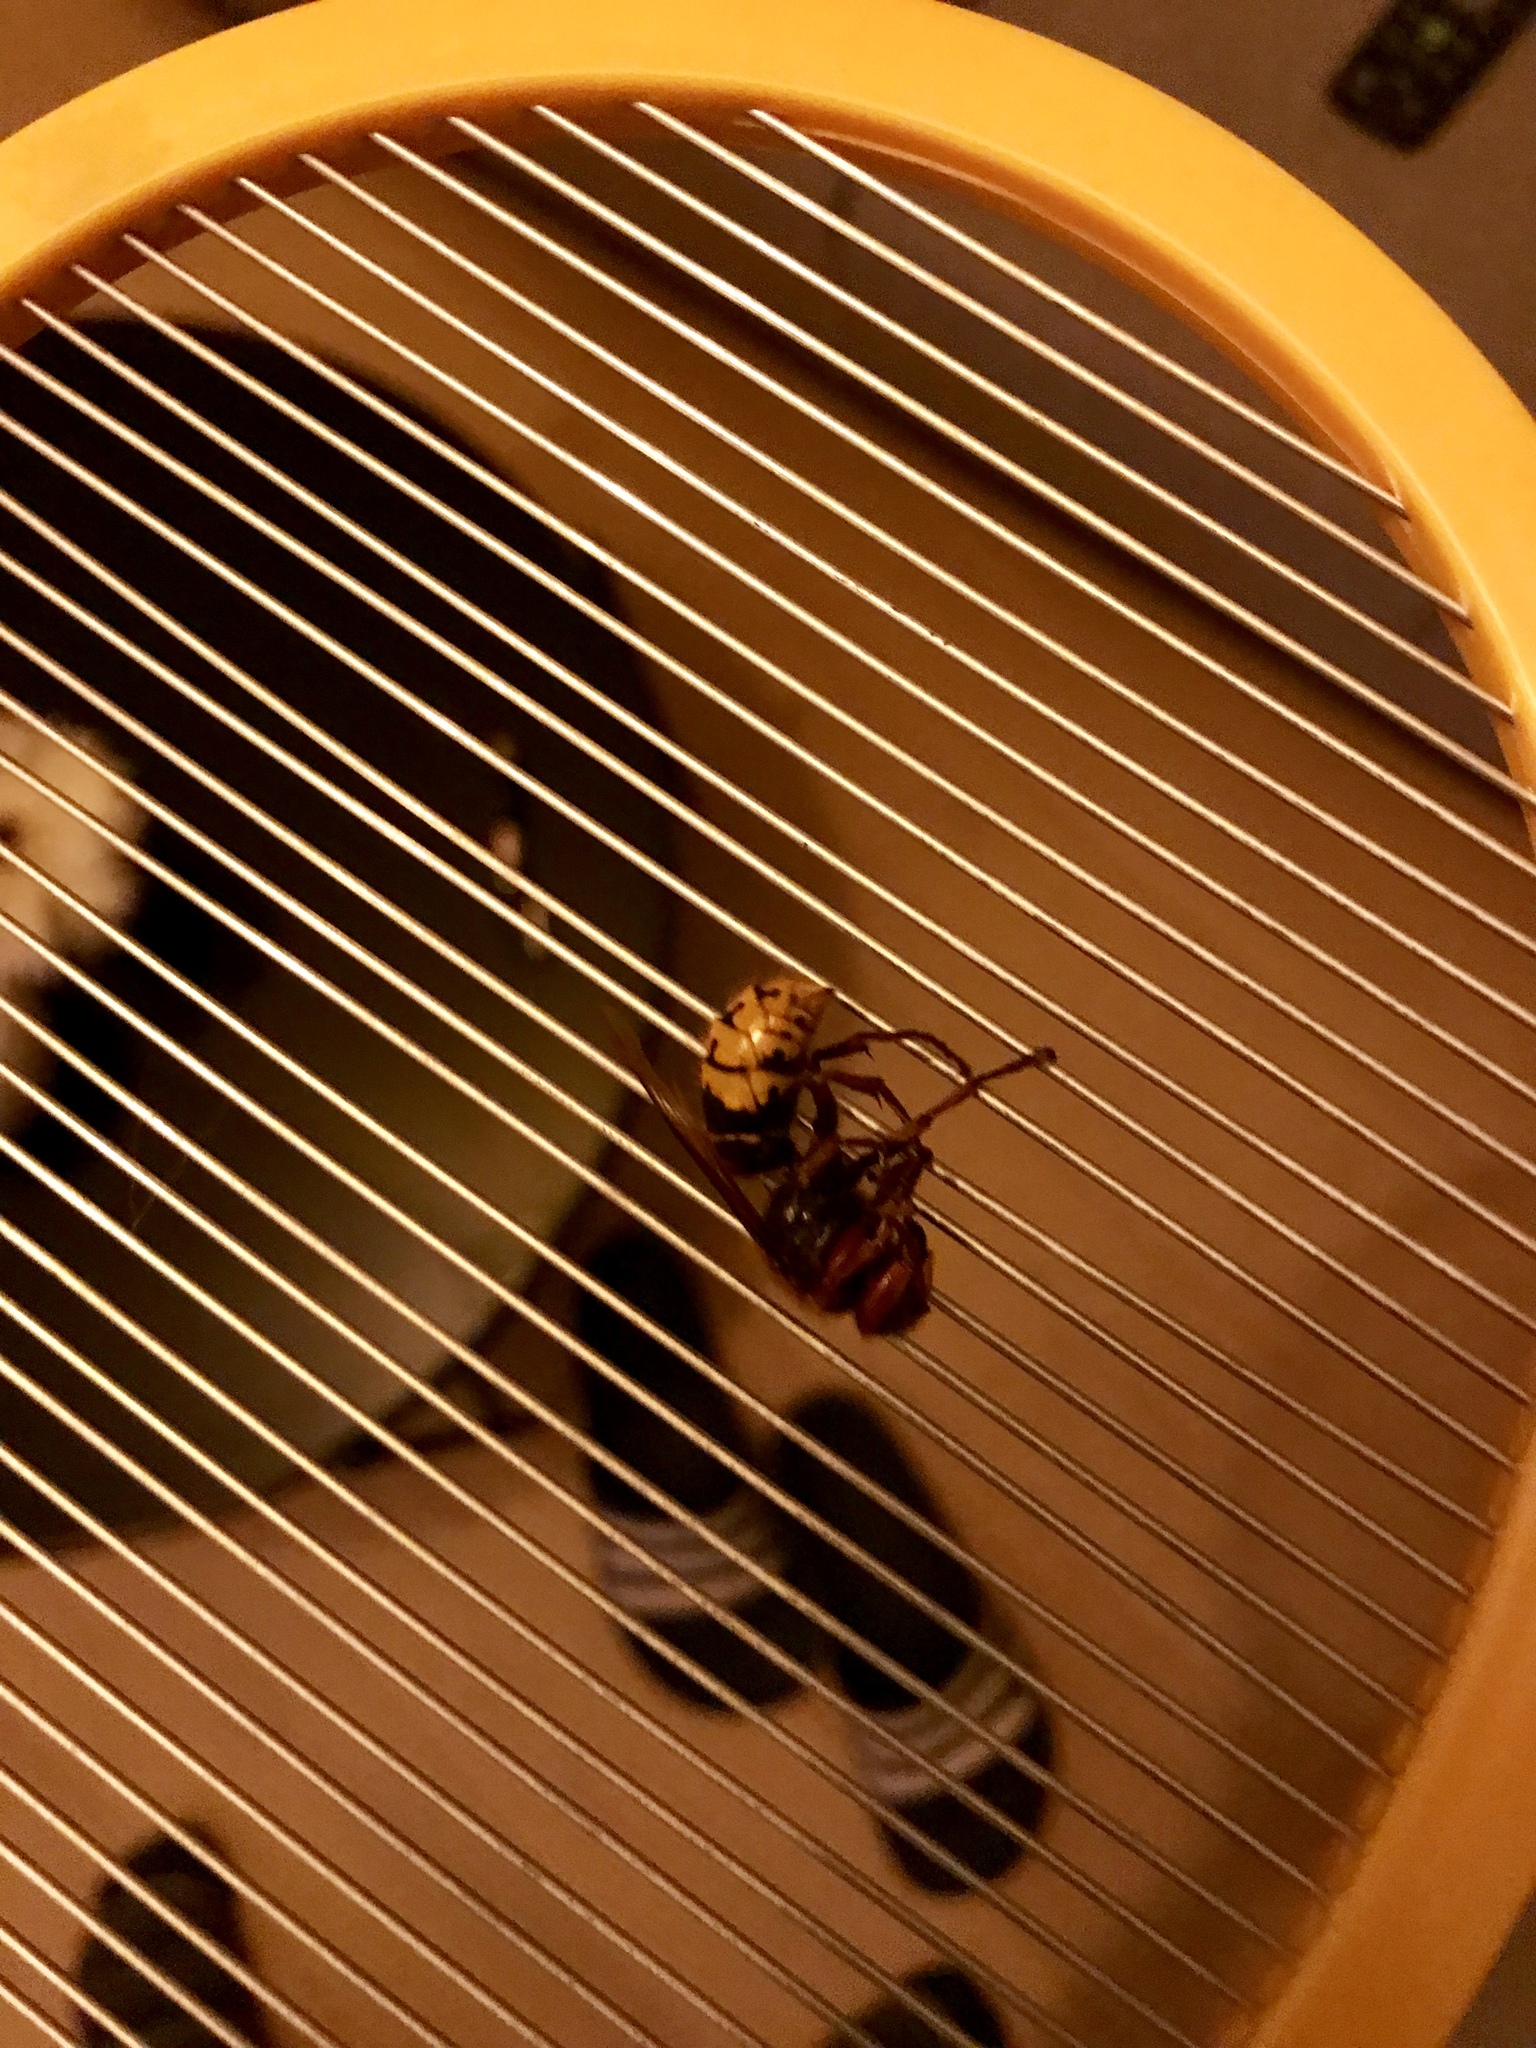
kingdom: Animalia
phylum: Arthropoda
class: Insecta
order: Hymenoptera
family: Vespidae
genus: Vespa
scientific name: Vespa crabro
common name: Hornet
